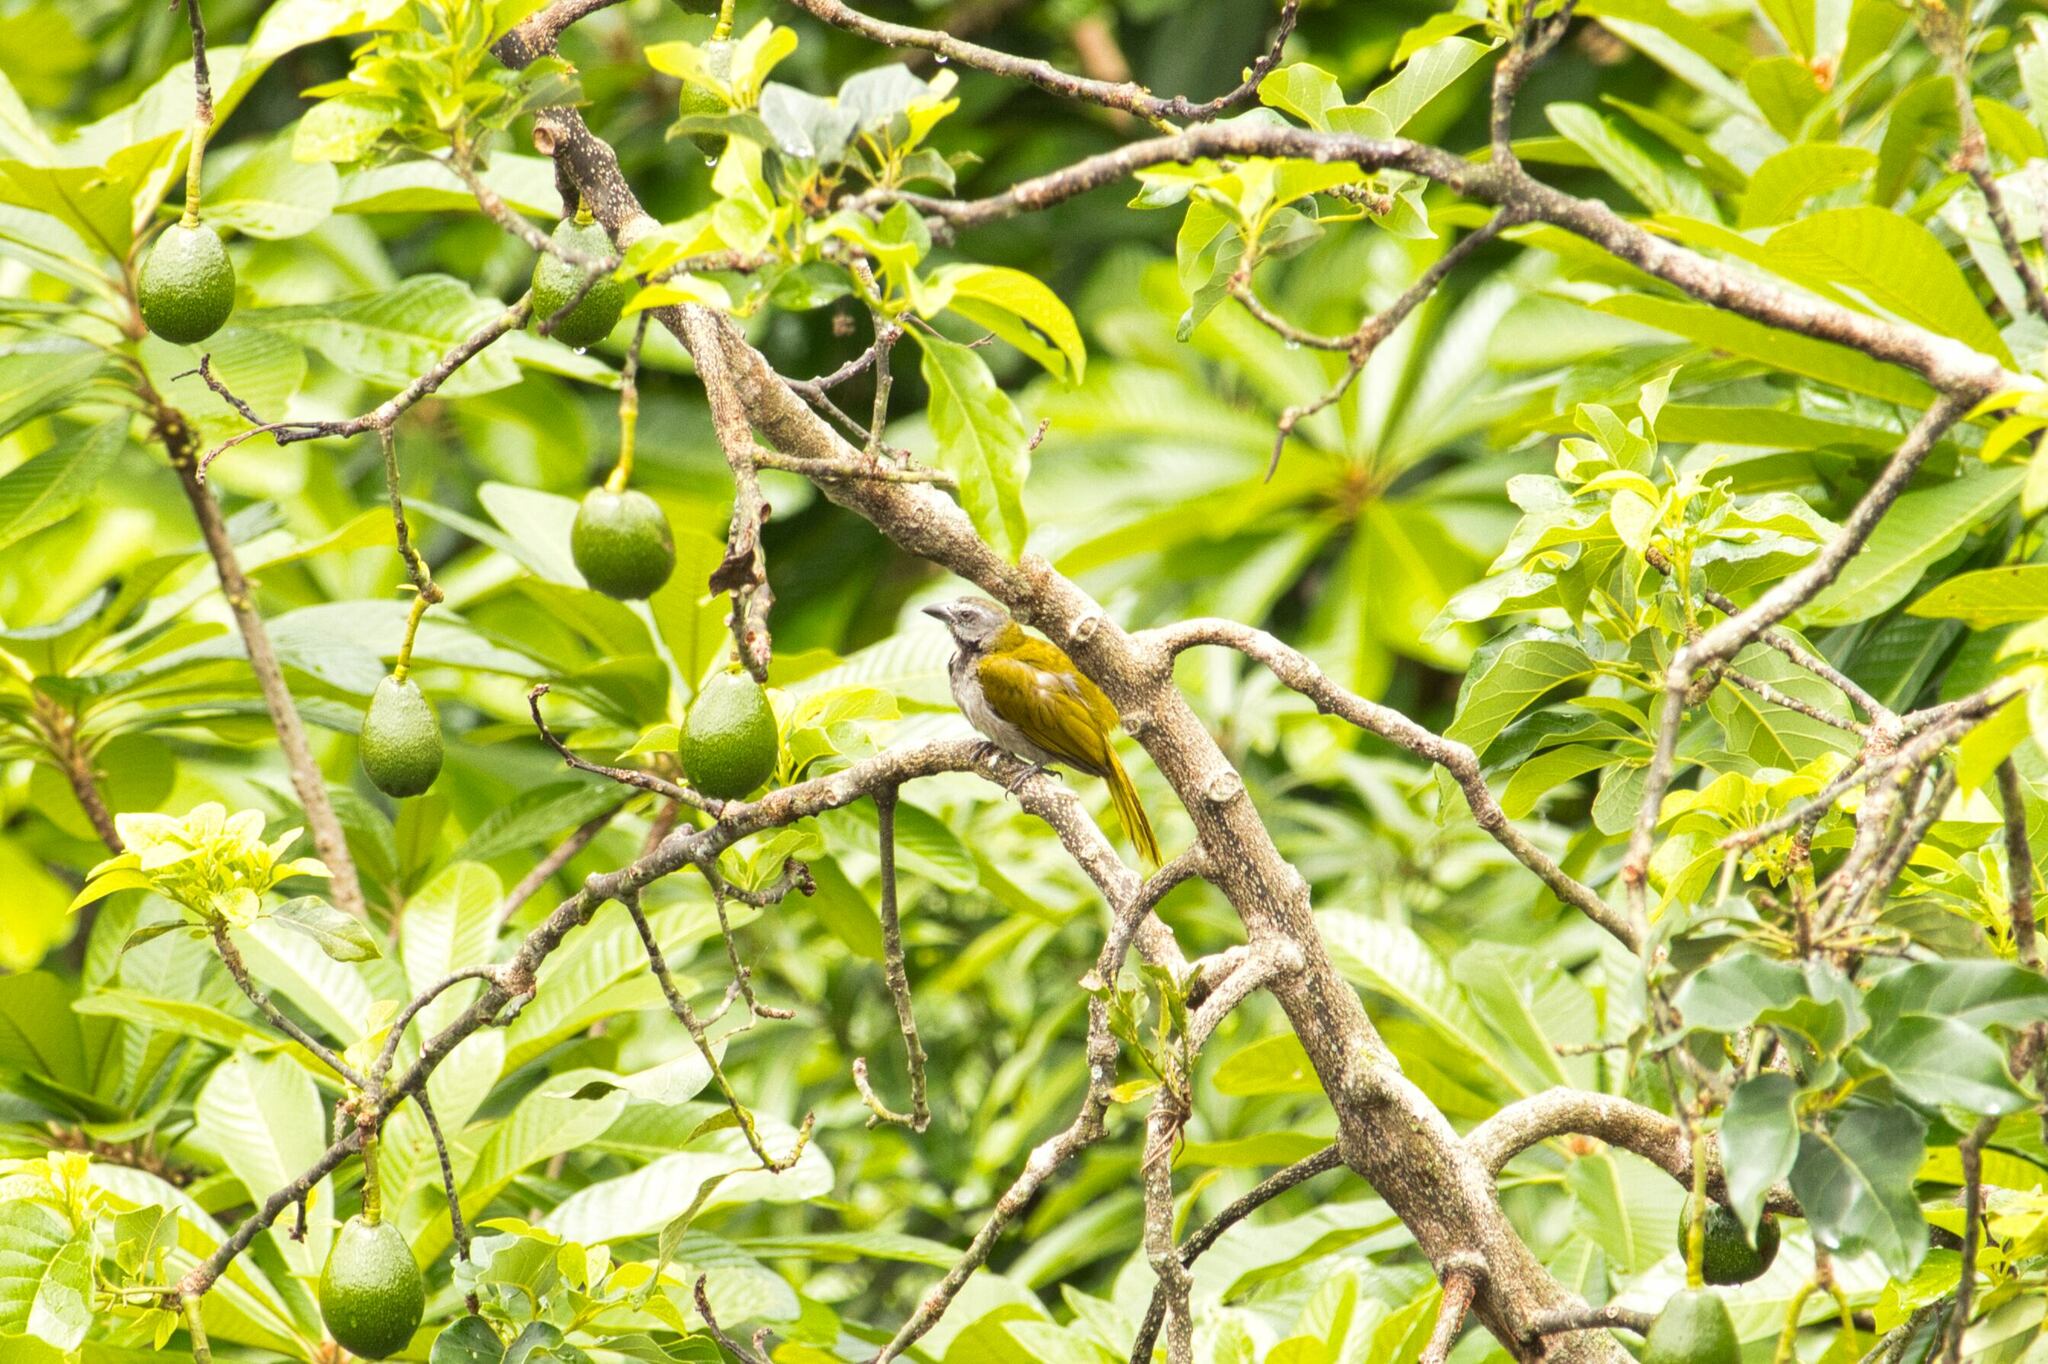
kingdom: Animalia
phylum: Chordata
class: Aves
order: Passeriformes
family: Thraupidae
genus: Saltator
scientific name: Saltator maximus
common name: Buff-throated saltator
